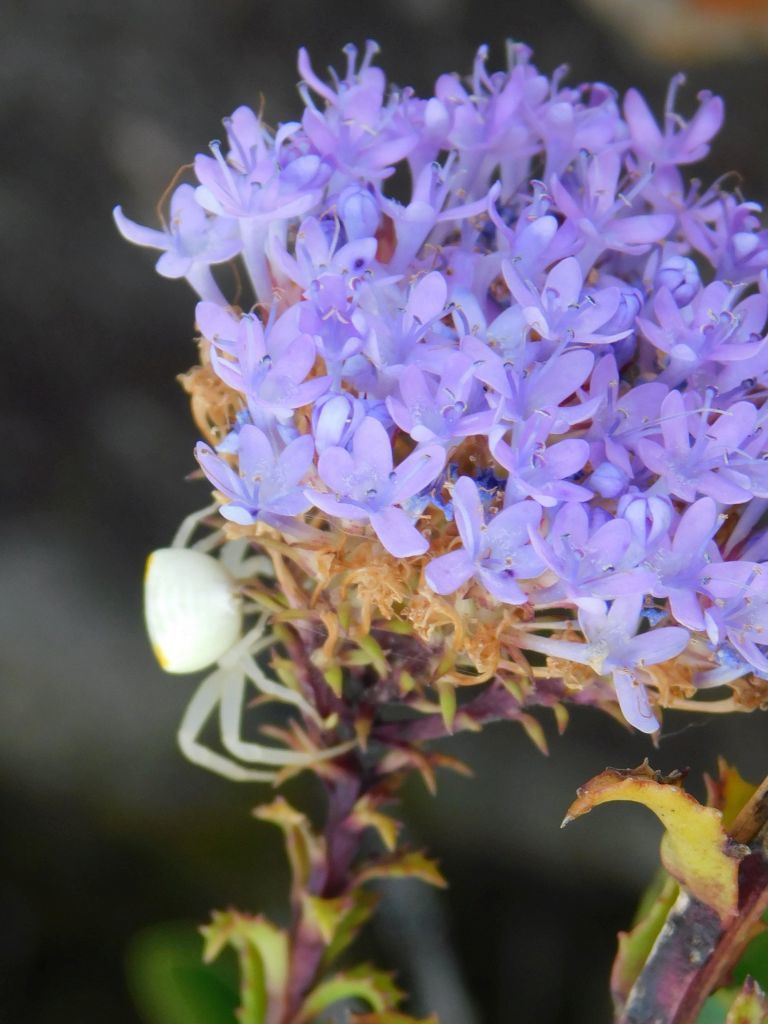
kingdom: Animalia
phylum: Arthropoda
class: Arachnida
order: Araneae
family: Thomisidae
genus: Thomisus
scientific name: Thomisus stenningi
